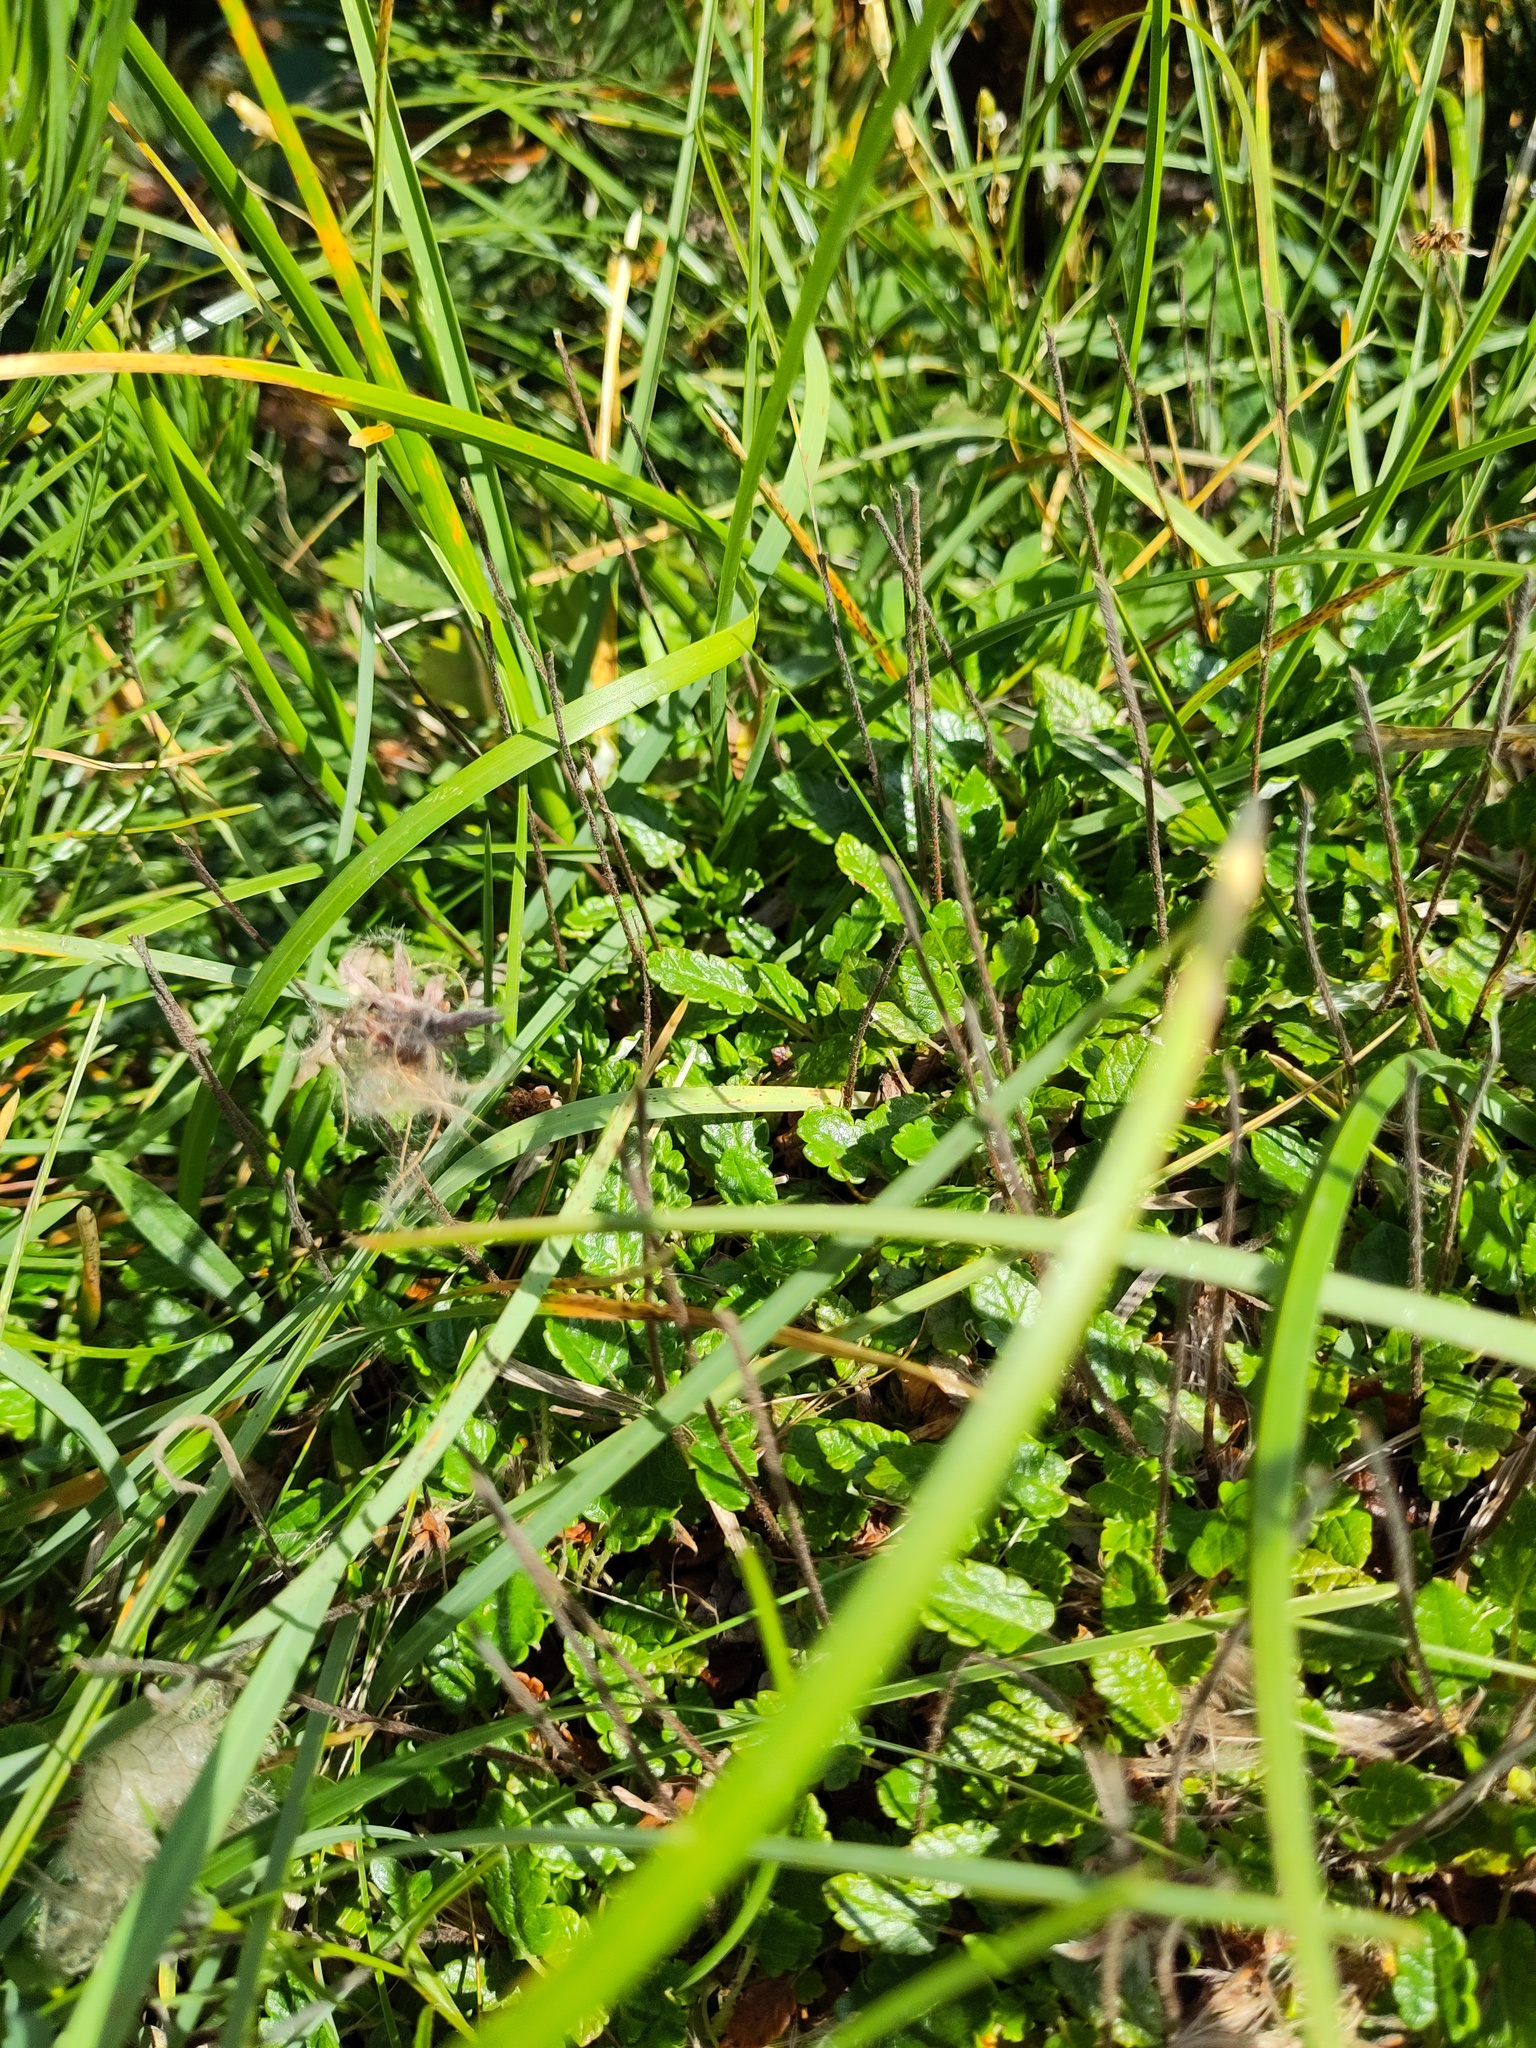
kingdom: Plantae
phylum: Tracheophyta
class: Magnoliopsida
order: Rosales
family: Rosaceae
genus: Dryas
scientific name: Dryas octopetala
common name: Eight-petal mountain-avens
